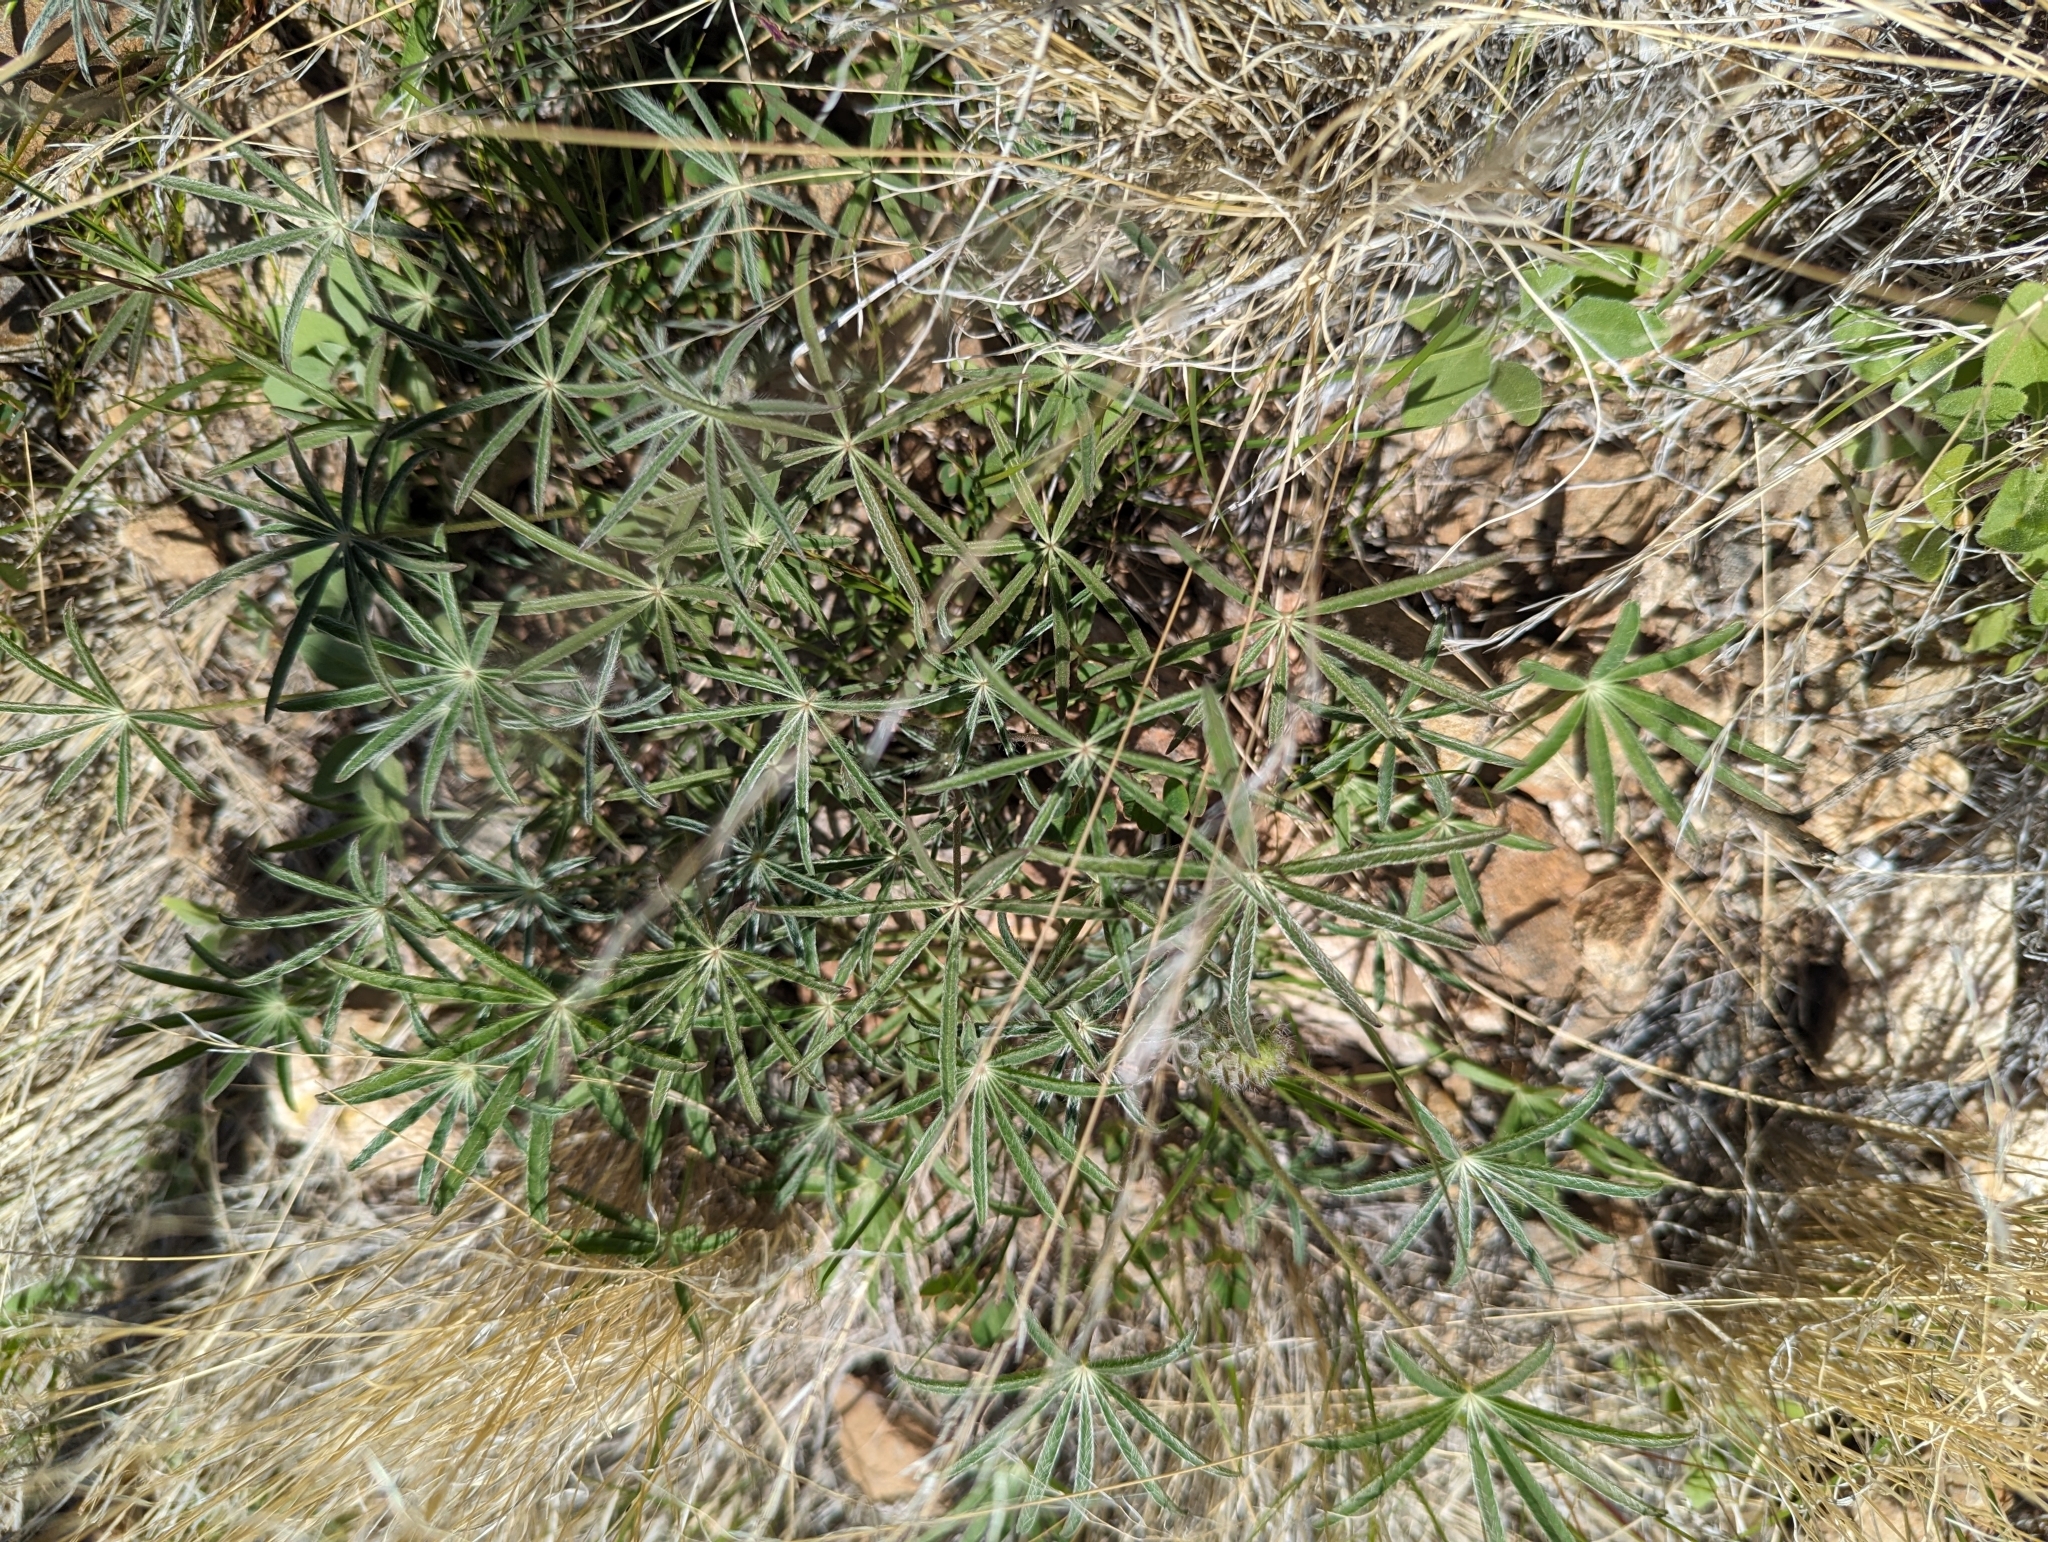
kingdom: Plantae
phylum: Tracheophyta
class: Magnoliopsida
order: Fabales
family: Fabaceae
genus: Lupinus
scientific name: Lupinus sparsiflorus
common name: Coulter's lupine
